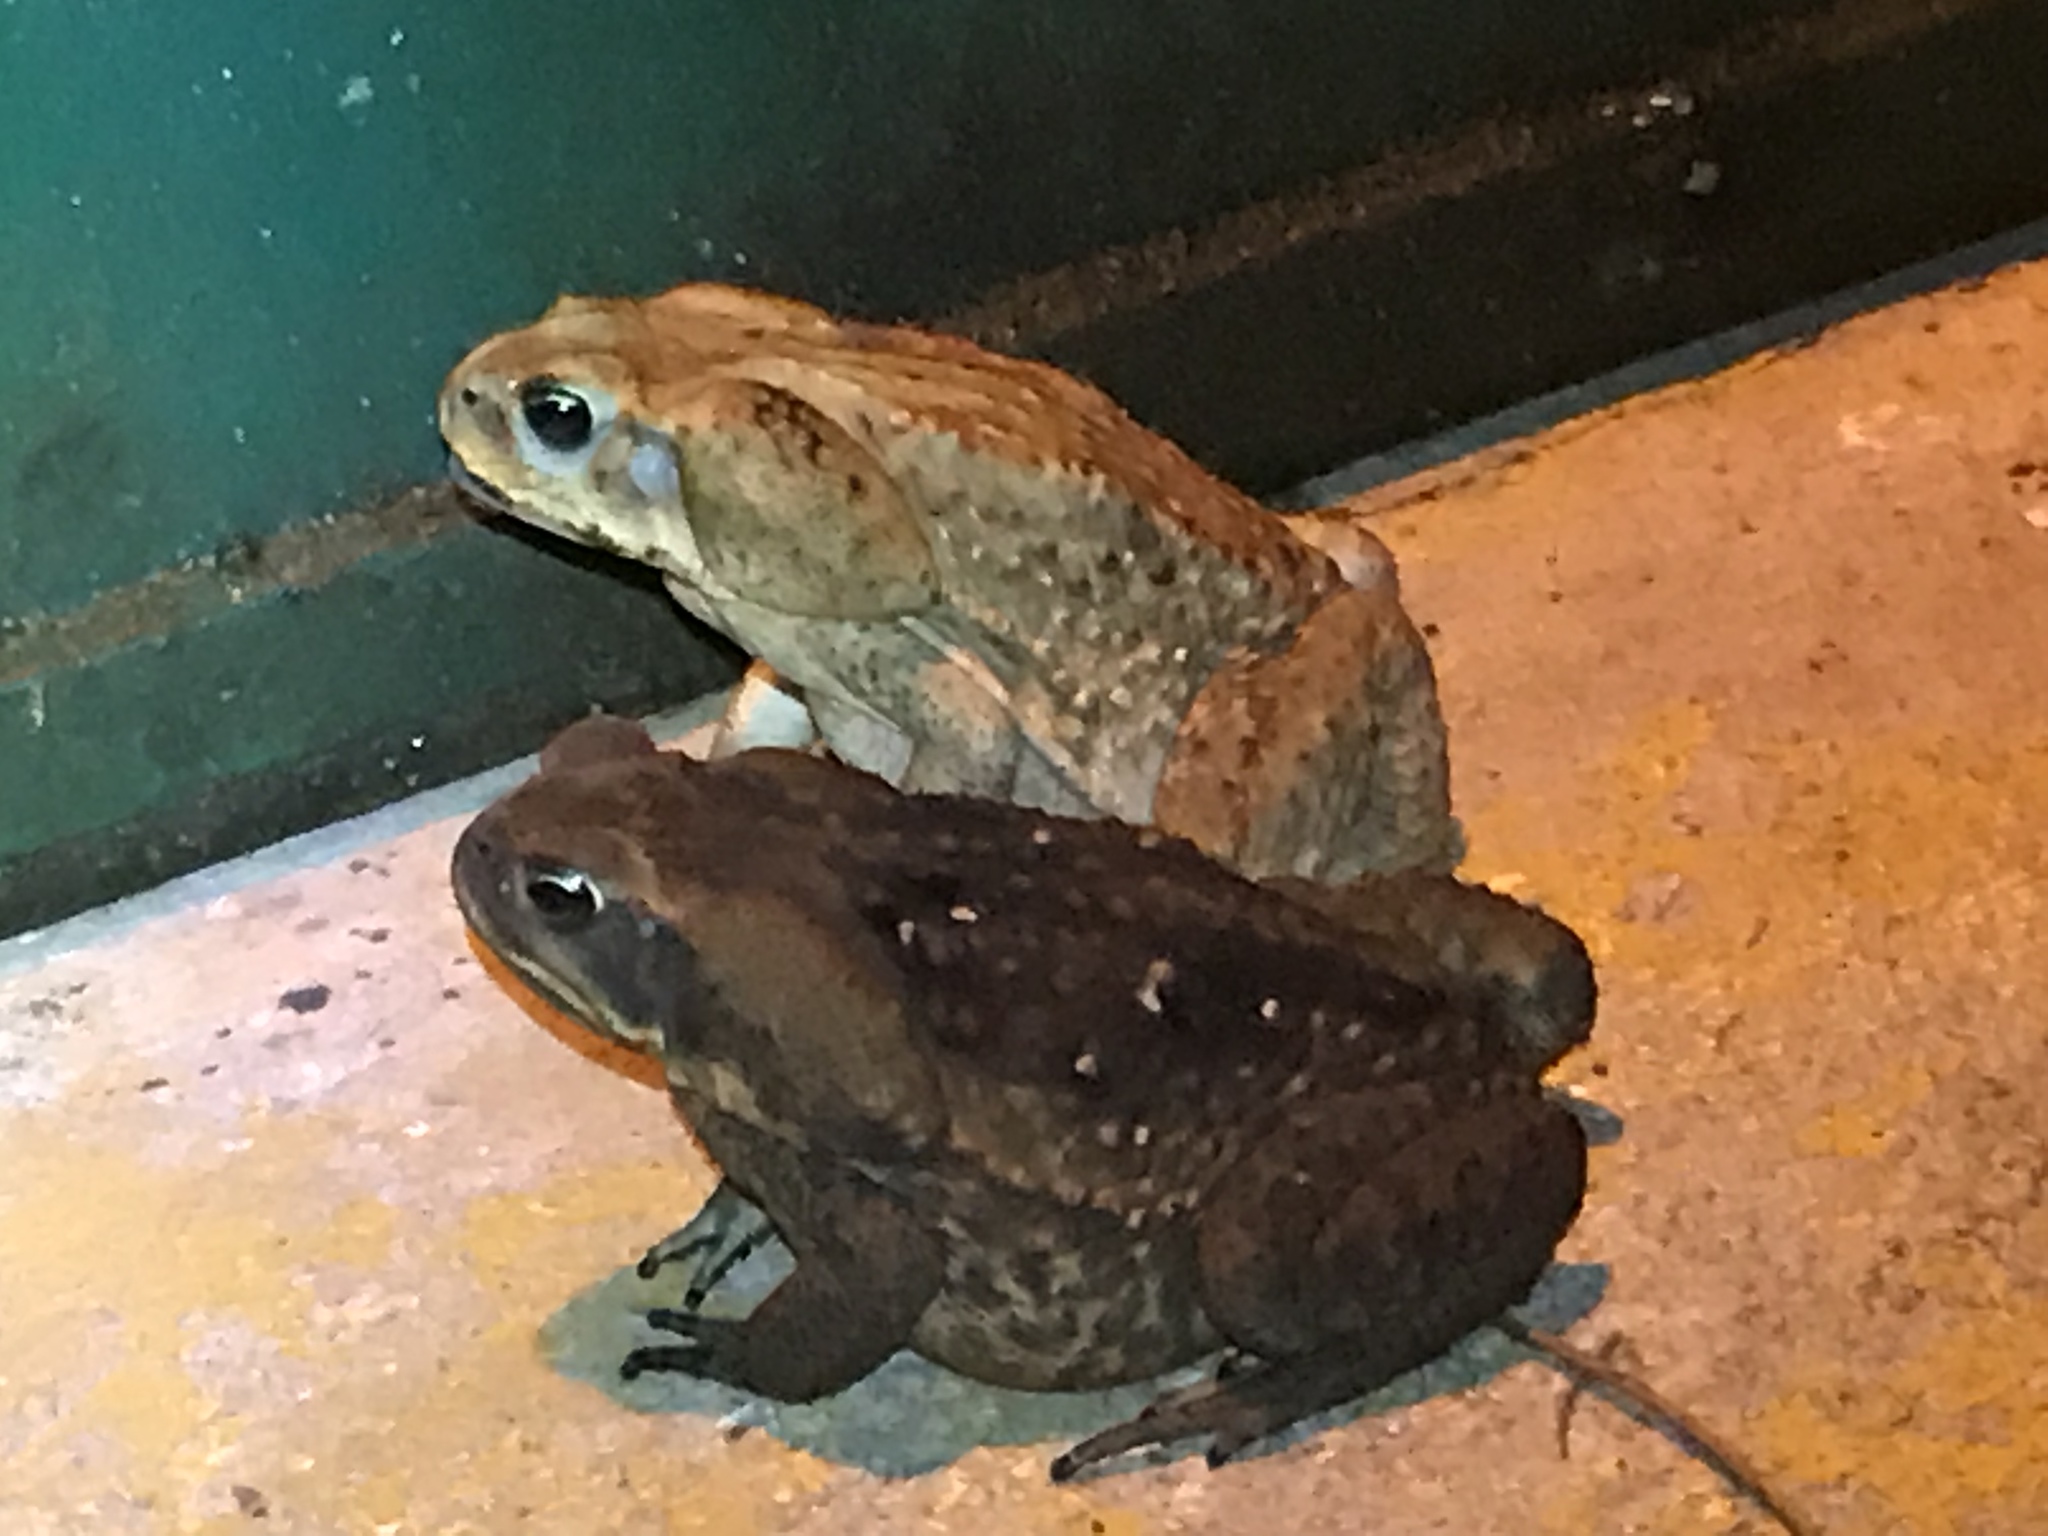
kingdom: Animalia
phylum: Chordata
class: Amphibia
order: Anura
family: Bufonidae
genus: Rhinella
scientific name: Rhinella horribilis
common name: Mesoamerican cane toad
